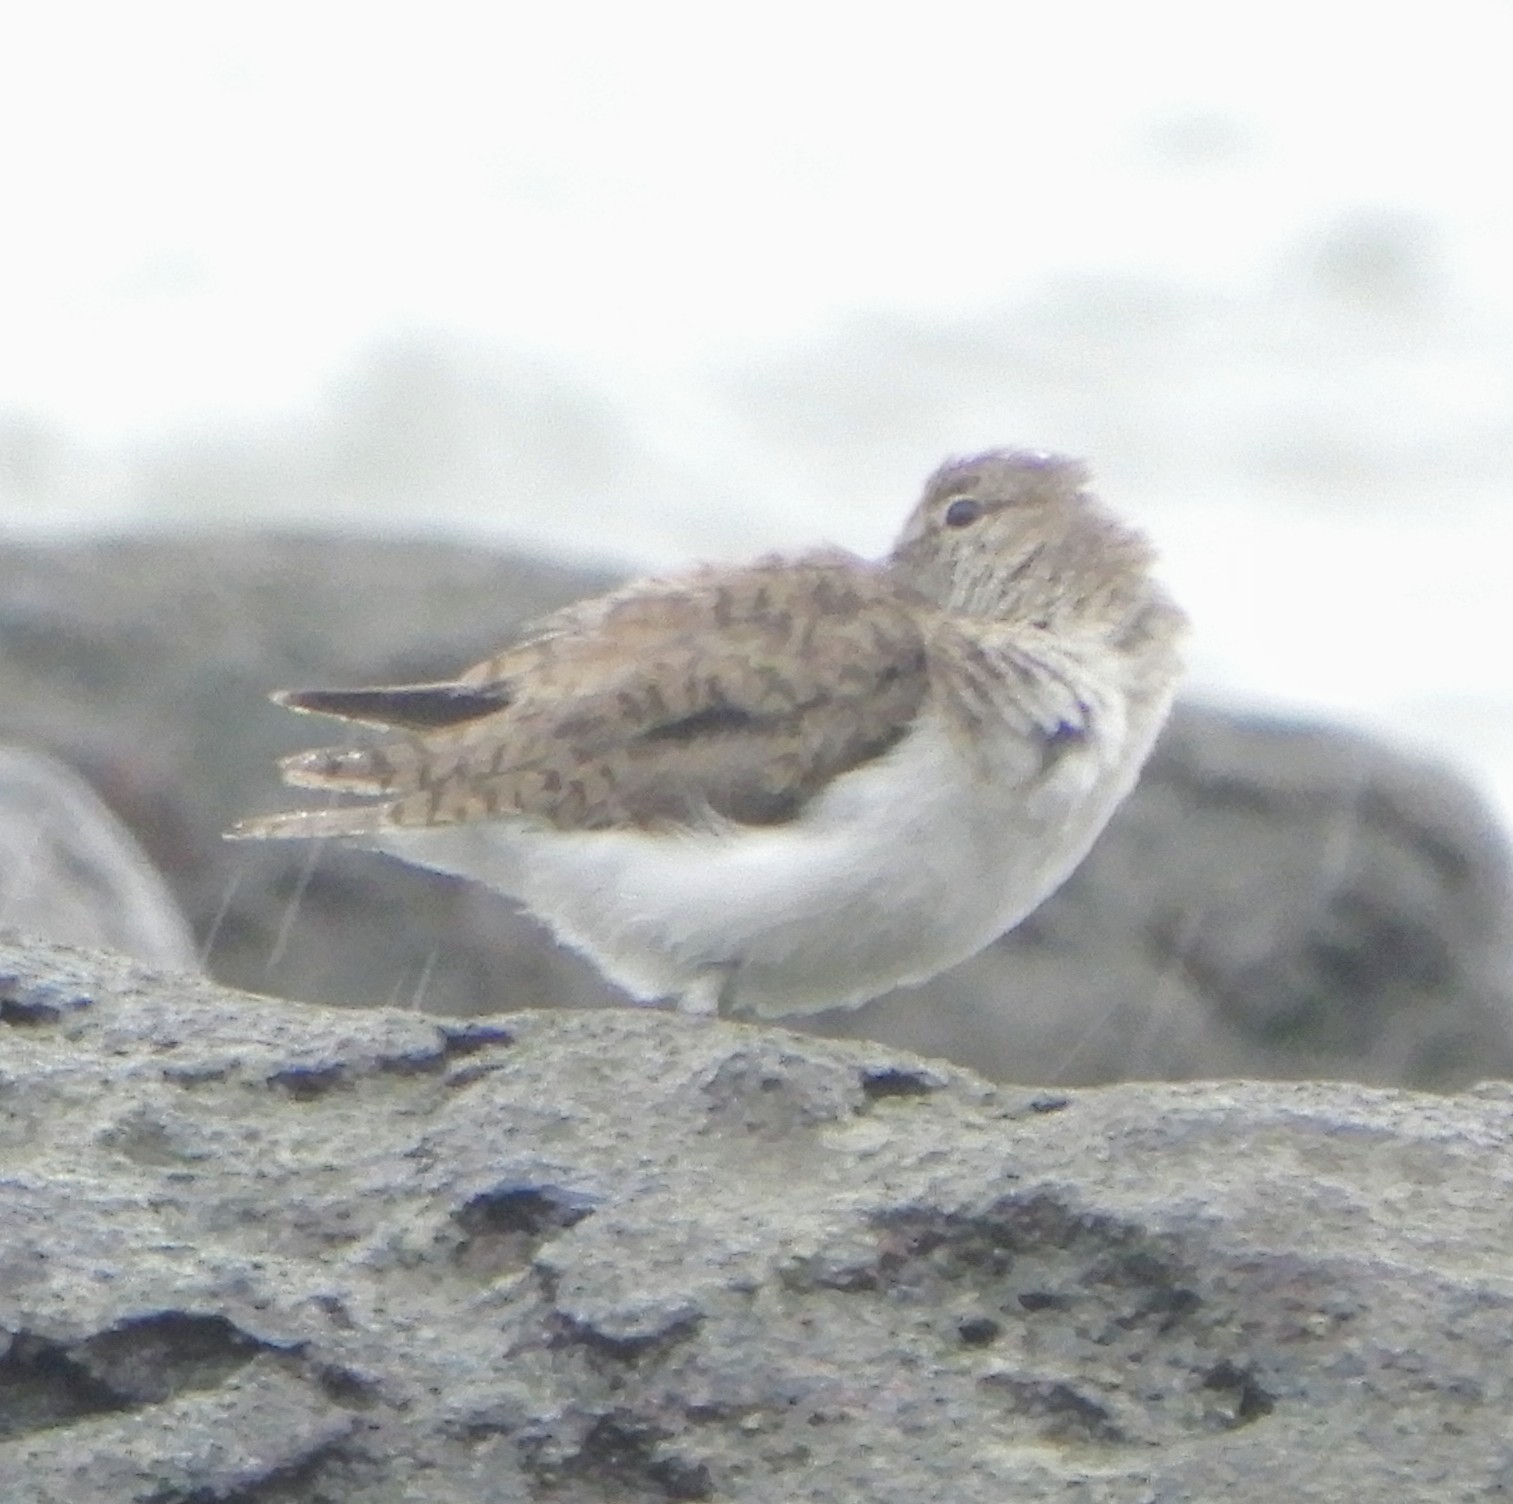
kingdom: Animalia
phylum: Chordata
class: Aves
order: Charadriiformes
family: Scolopacidae
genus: Actitis
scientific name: Actitis hypoleucos
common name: Common sandpiper
